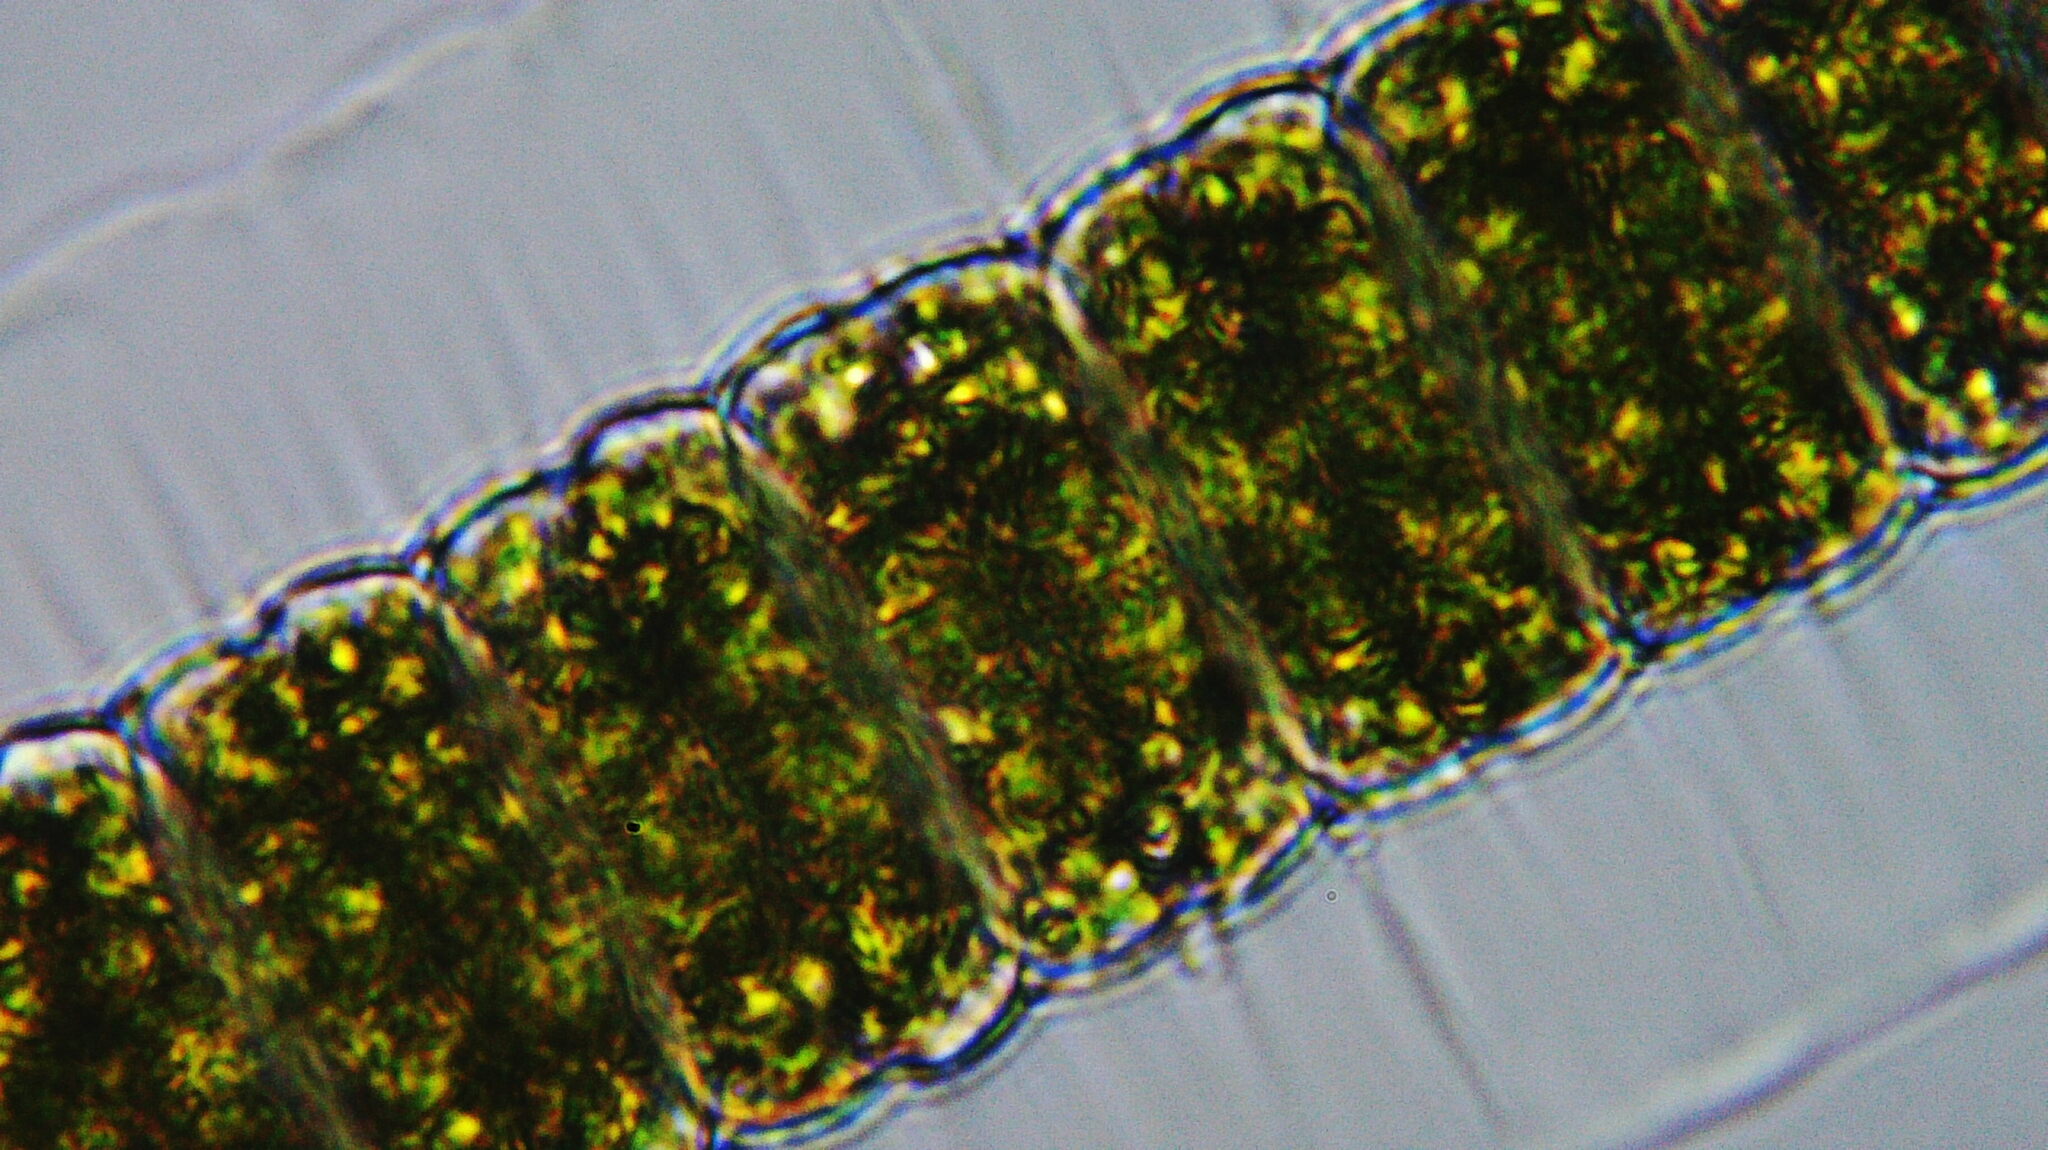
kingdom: Plantae
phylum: Charophyta
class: Conjugatophyceae
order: Desmidiales
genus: Hyalotheca
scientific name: Hyalotheca dissiliens
